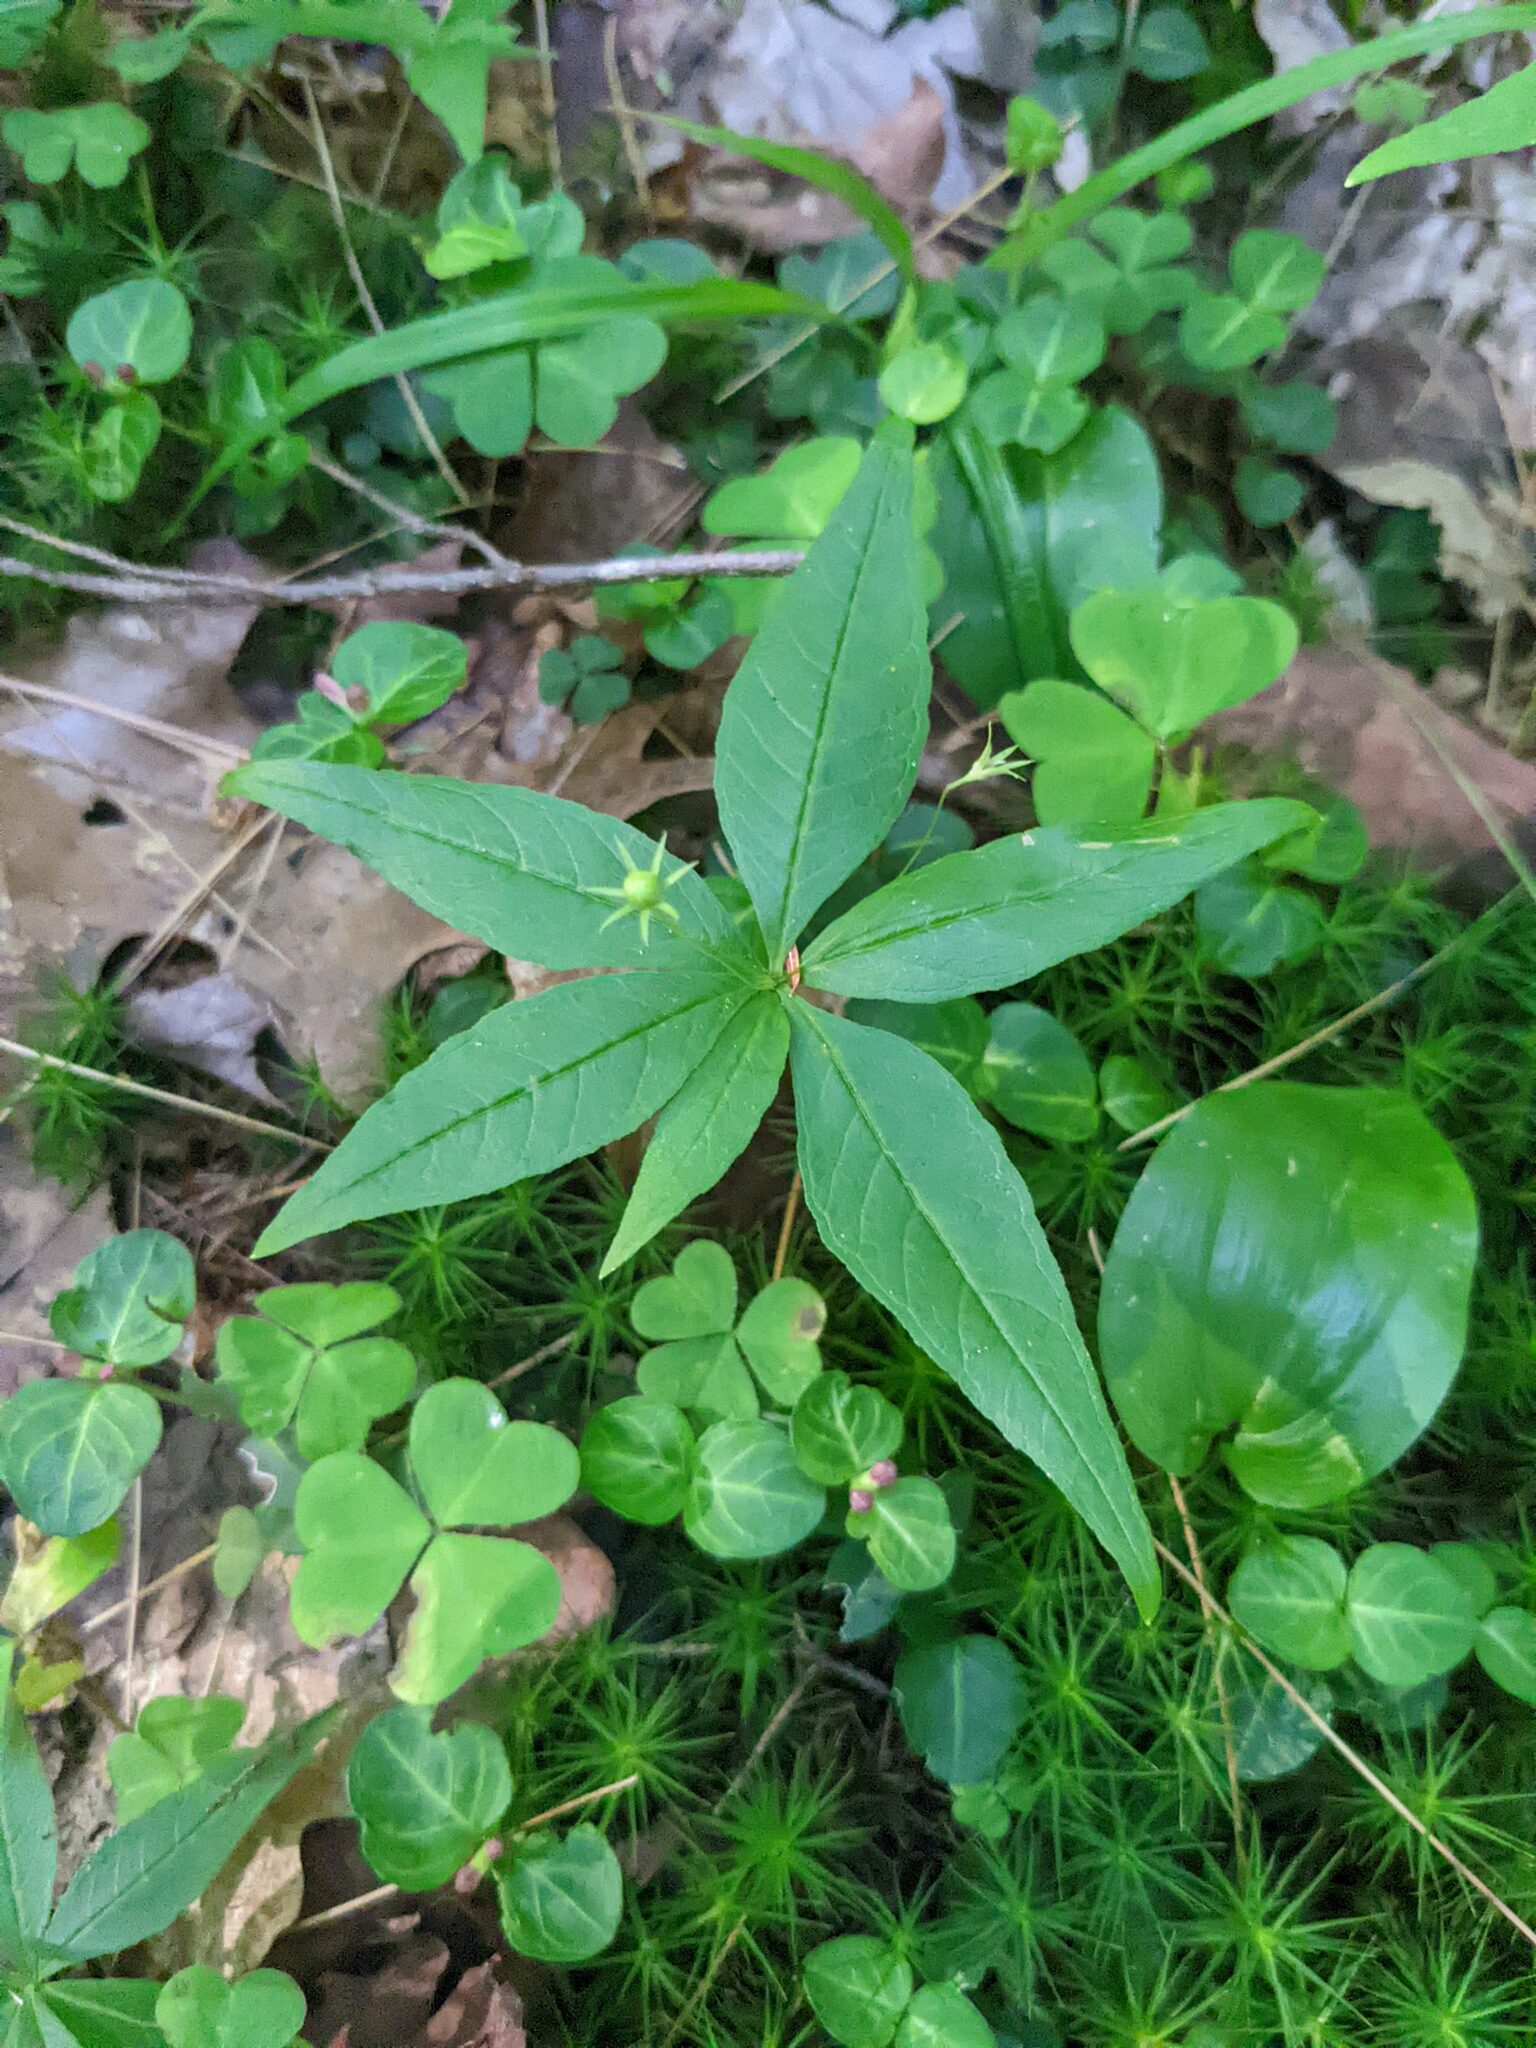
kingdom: Plantae
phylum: Tracheophyta
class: Magnoliopsida
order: Ericales
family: Primulaceae
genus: Lysimachia
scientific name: Lysimachia borealis
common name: American starflower
